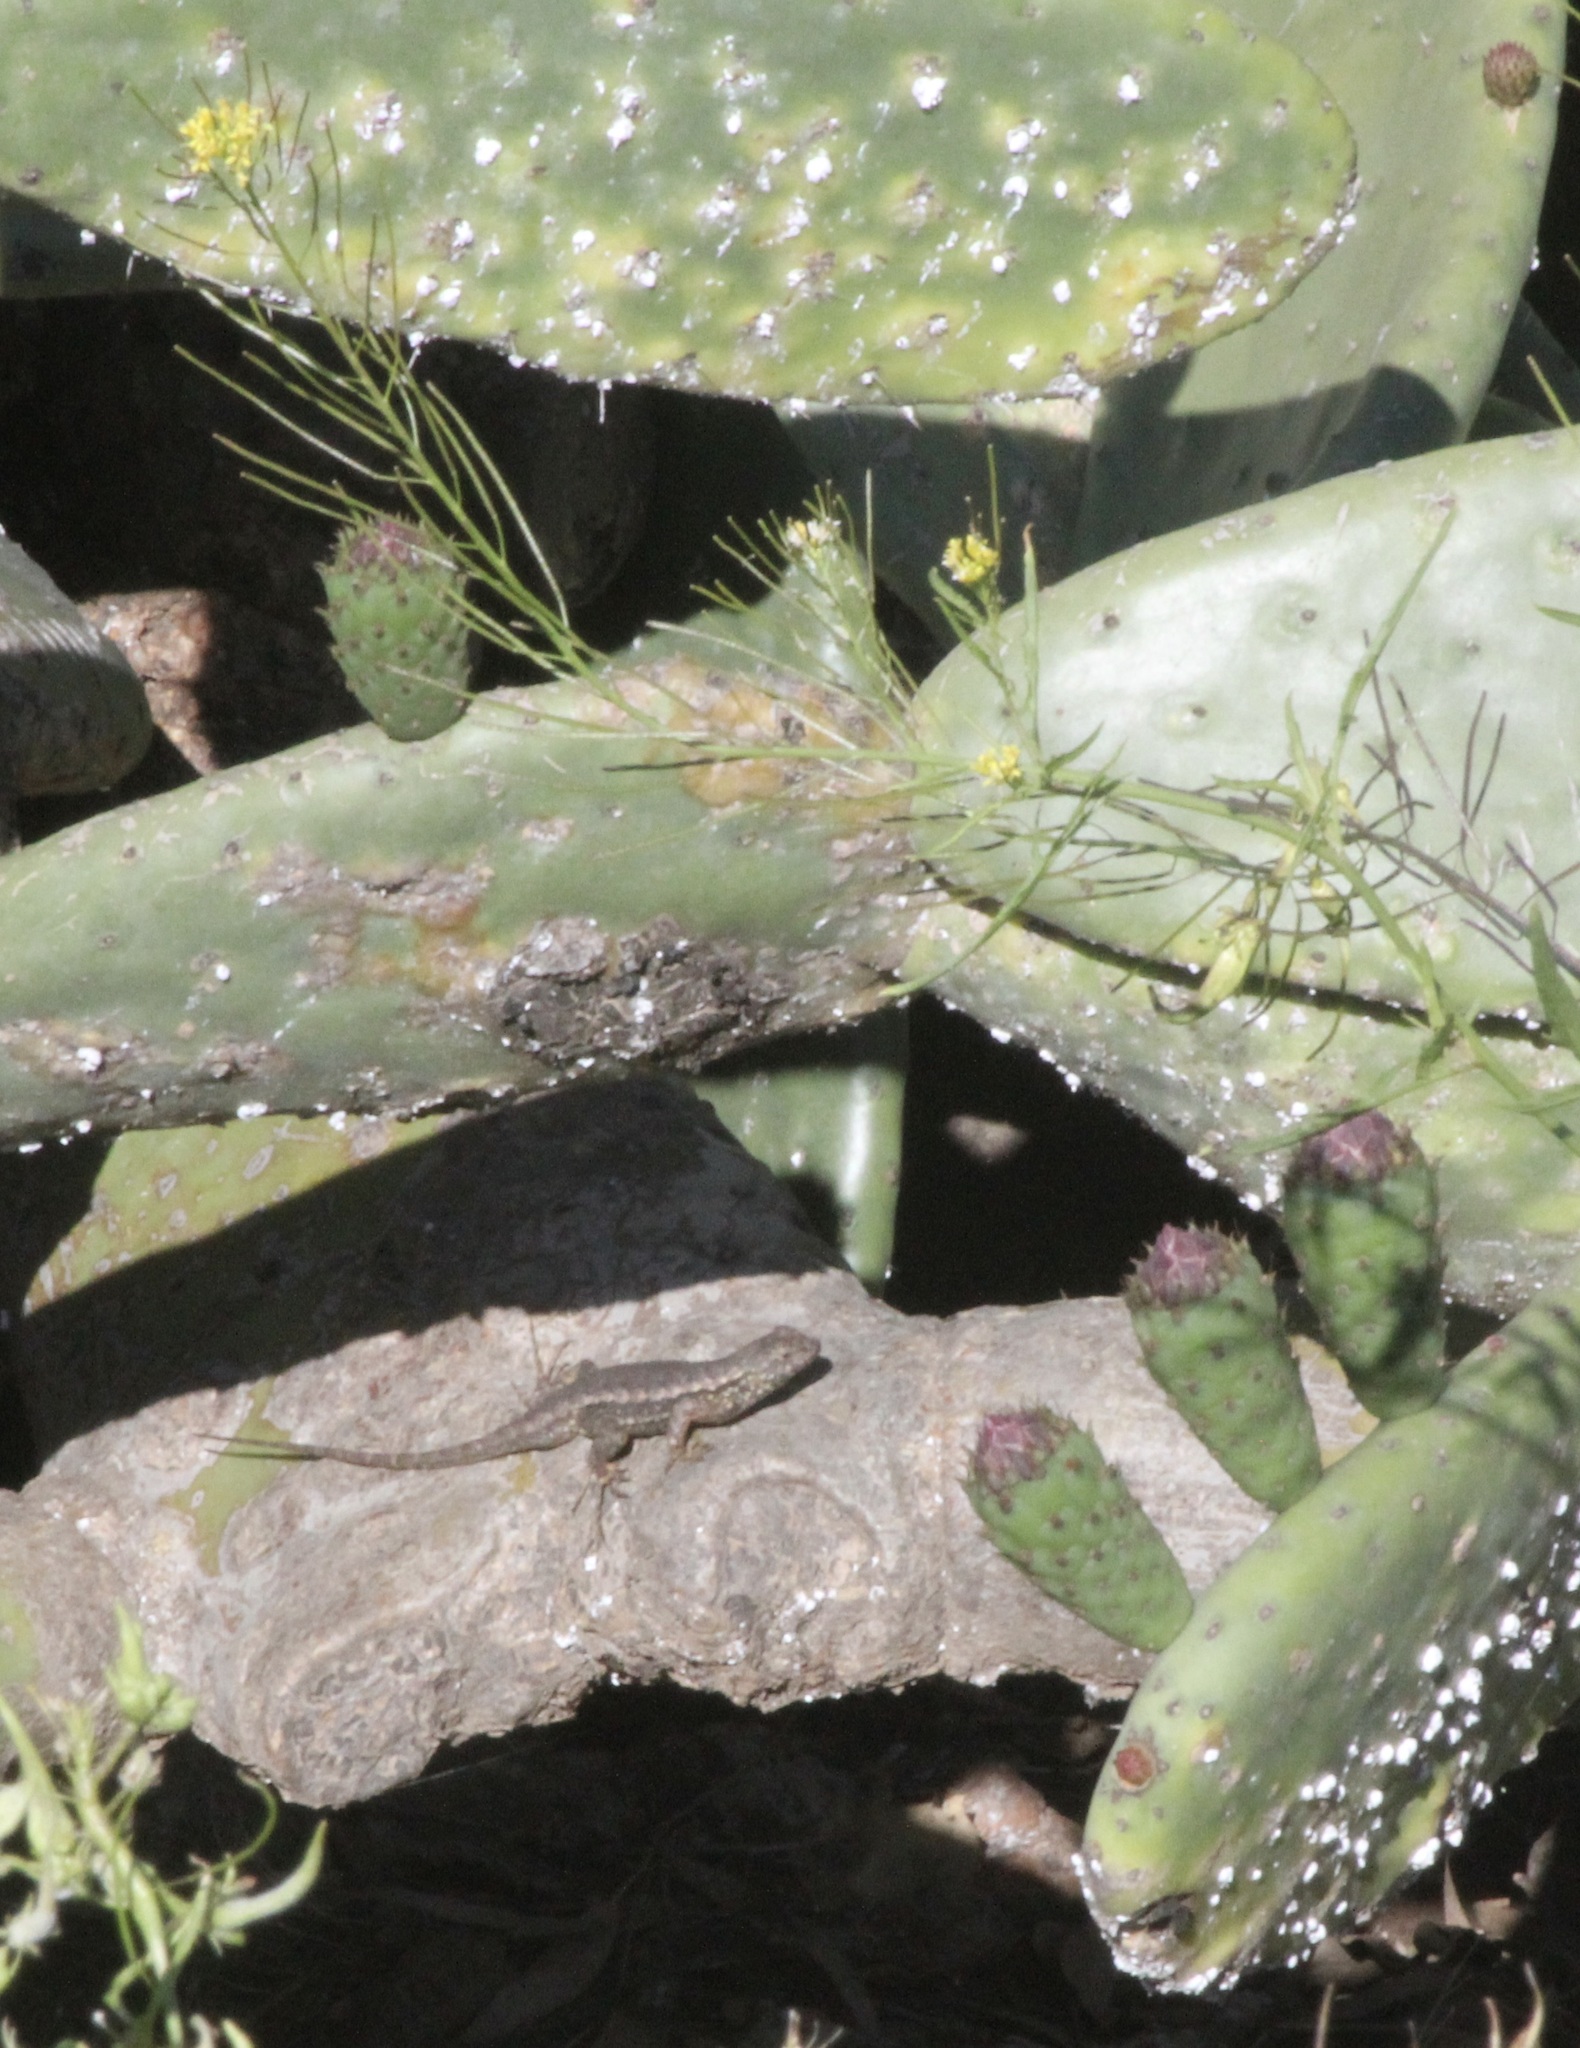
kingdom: Animalia
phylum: Chordata
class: Squamata
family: Phrynosomatidae
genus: Sceloporus
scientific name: Sceloporus occidentalis
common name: Western fence lizard
